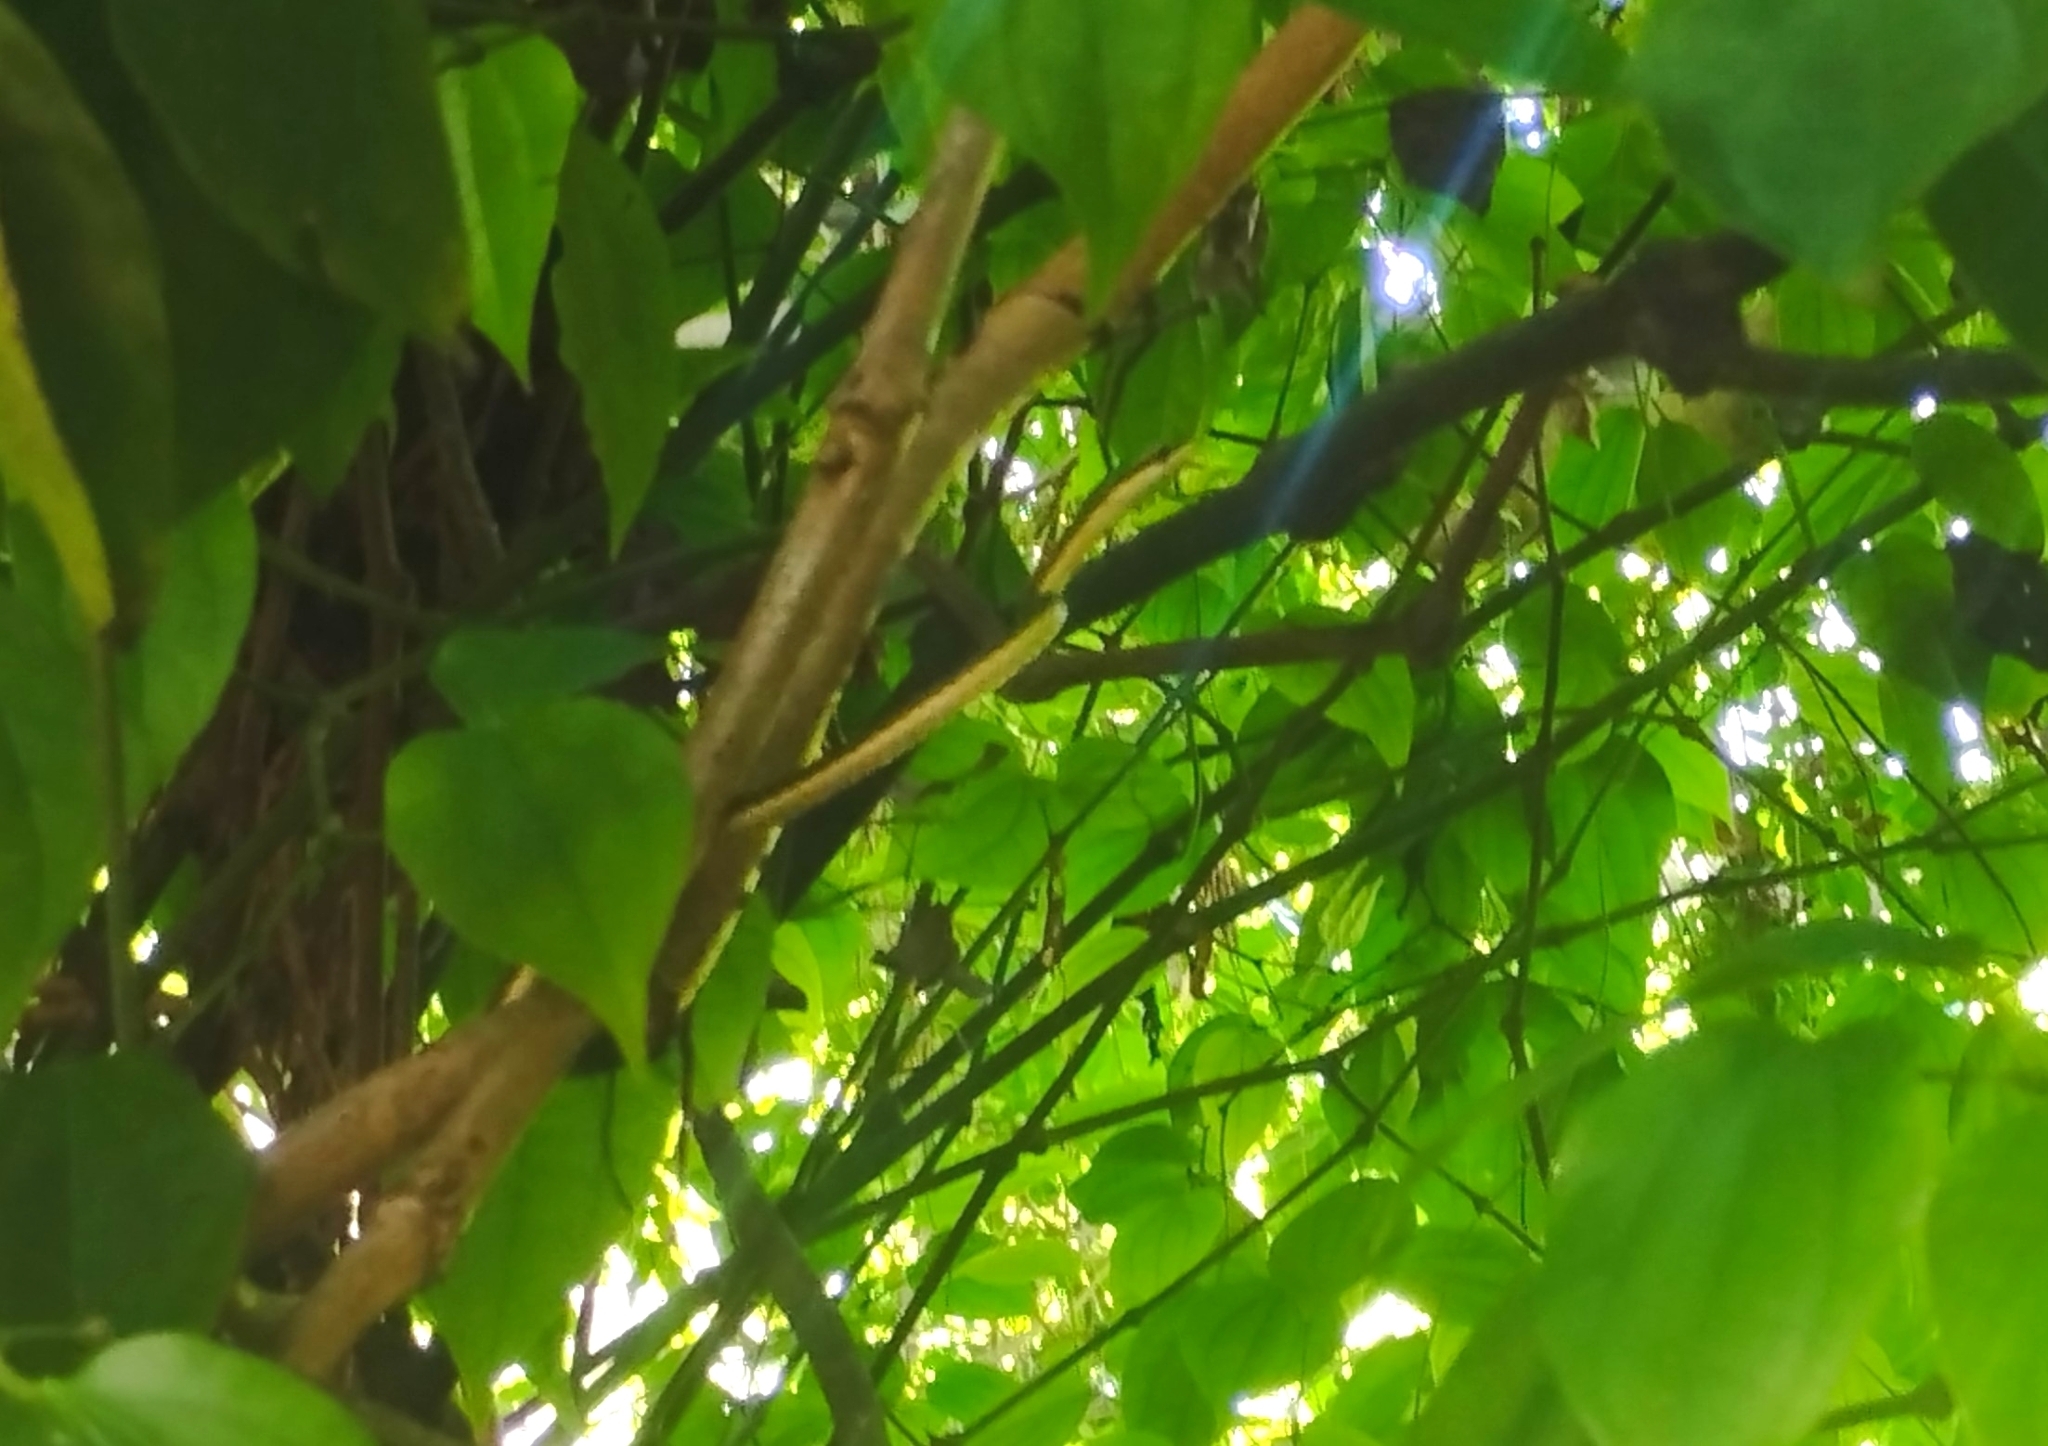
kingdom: Animalia
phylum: Chordata
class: Squamata
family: Colubridae
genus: Leptophis
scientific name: Leptophis mexicanus
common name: Mexican parrot snake
